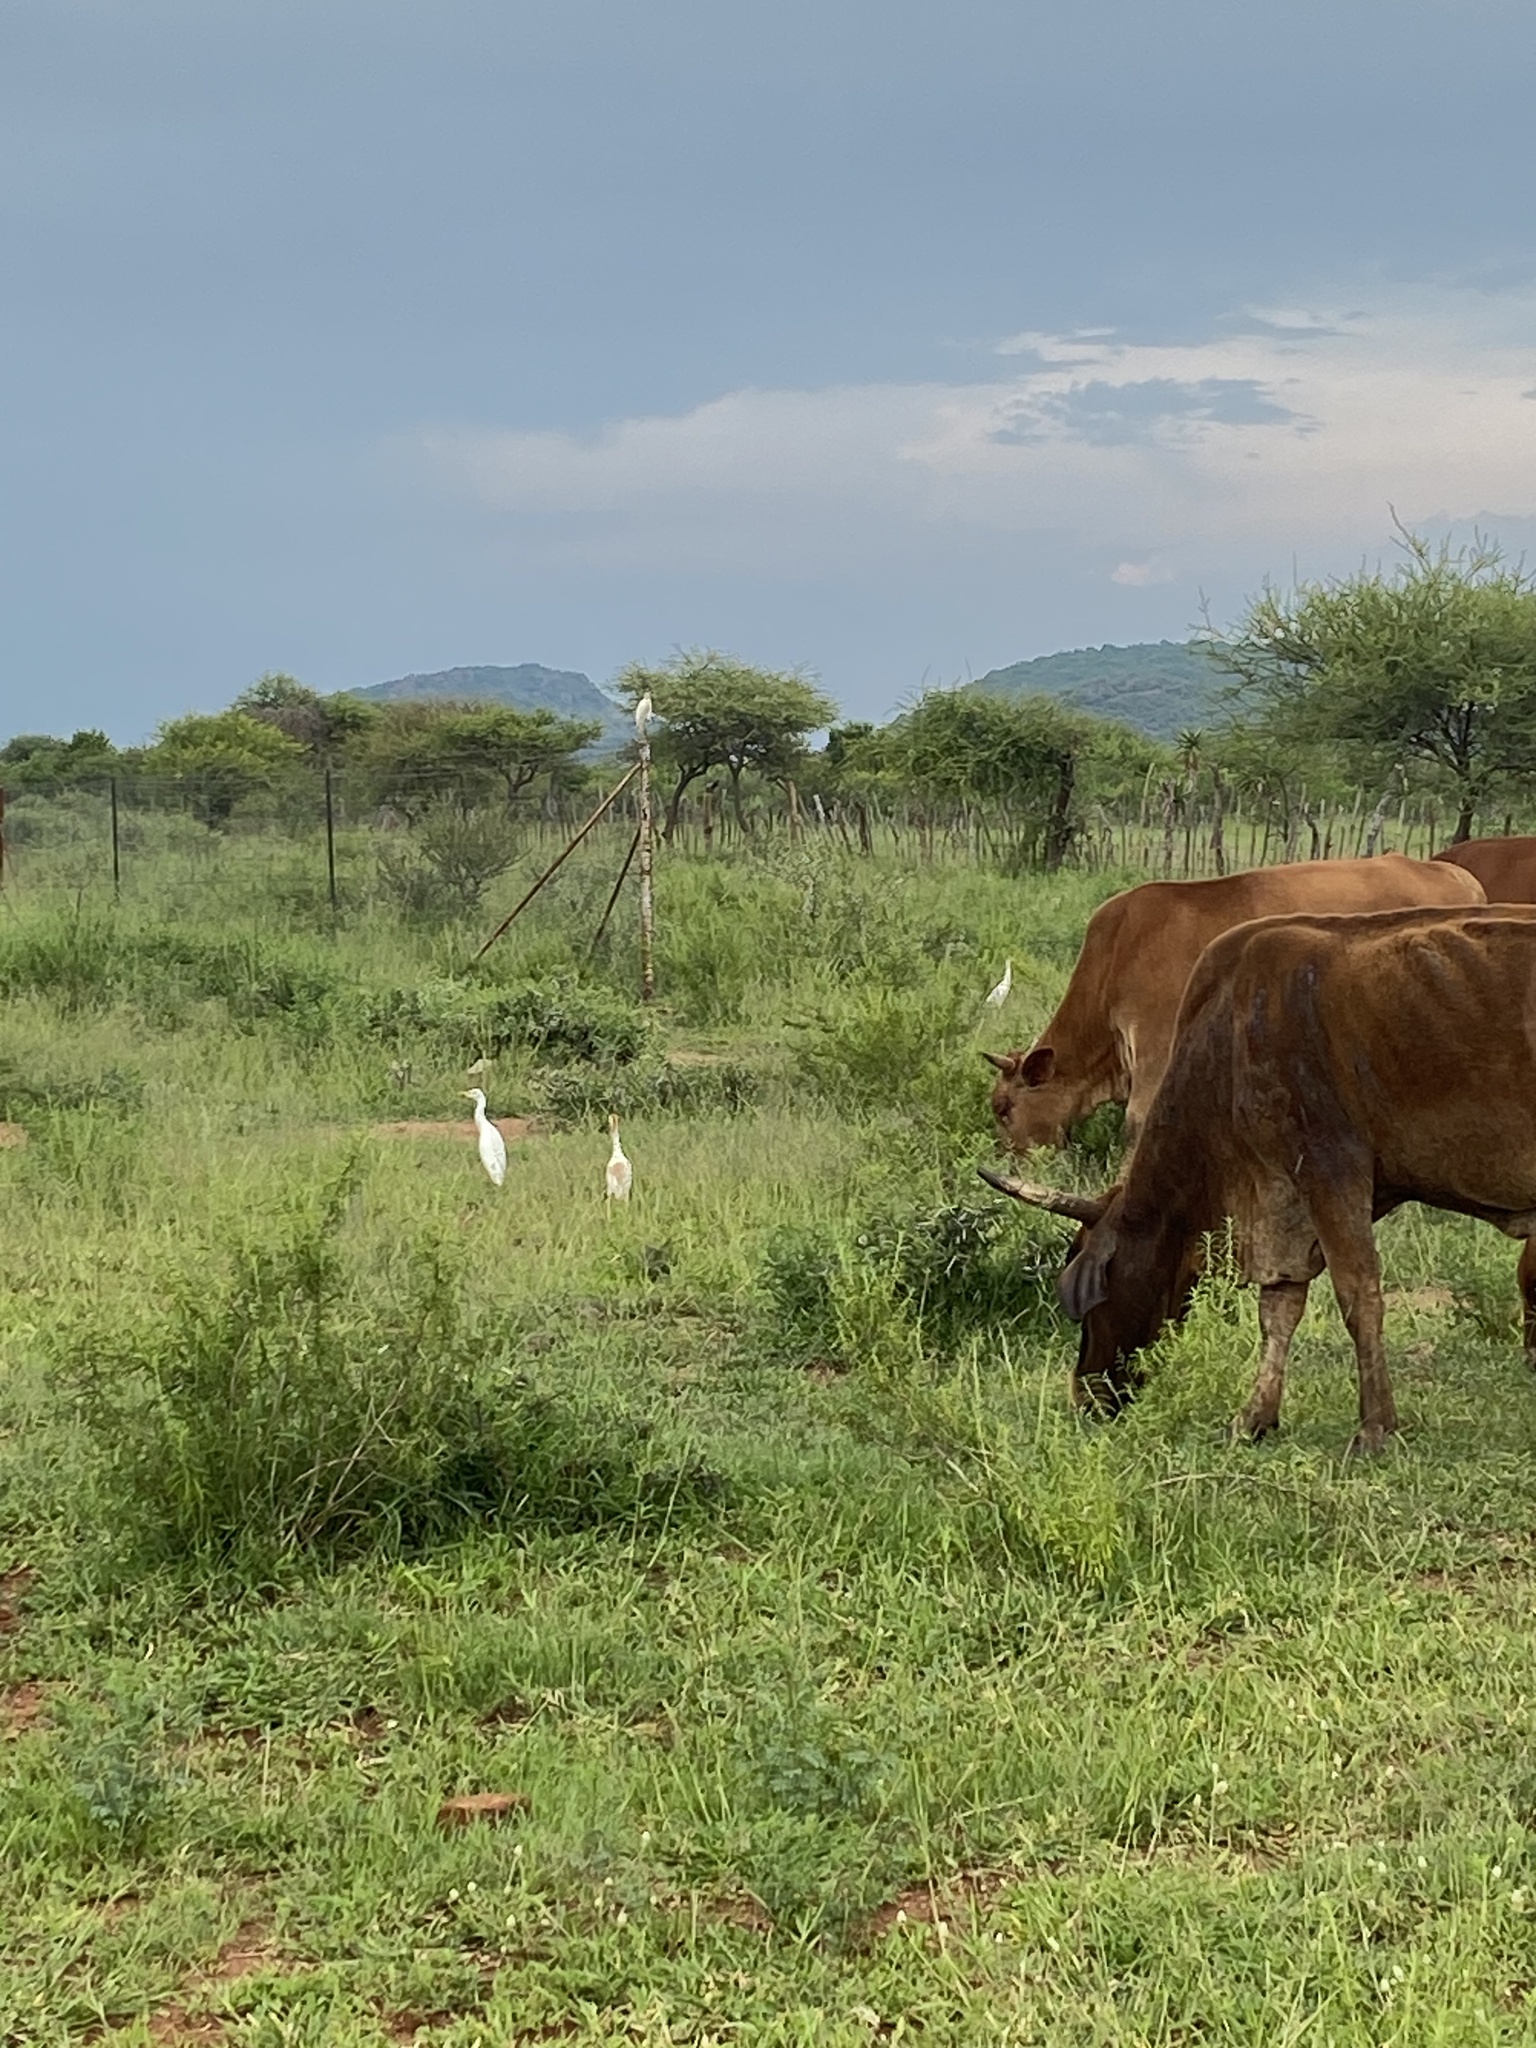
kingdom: Animalia
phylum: Chordata
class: Aves
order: Pelecaniformes
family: Ardeidae
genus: Bubulcus
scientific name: Bubulcus ibis
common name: Cattle egret
